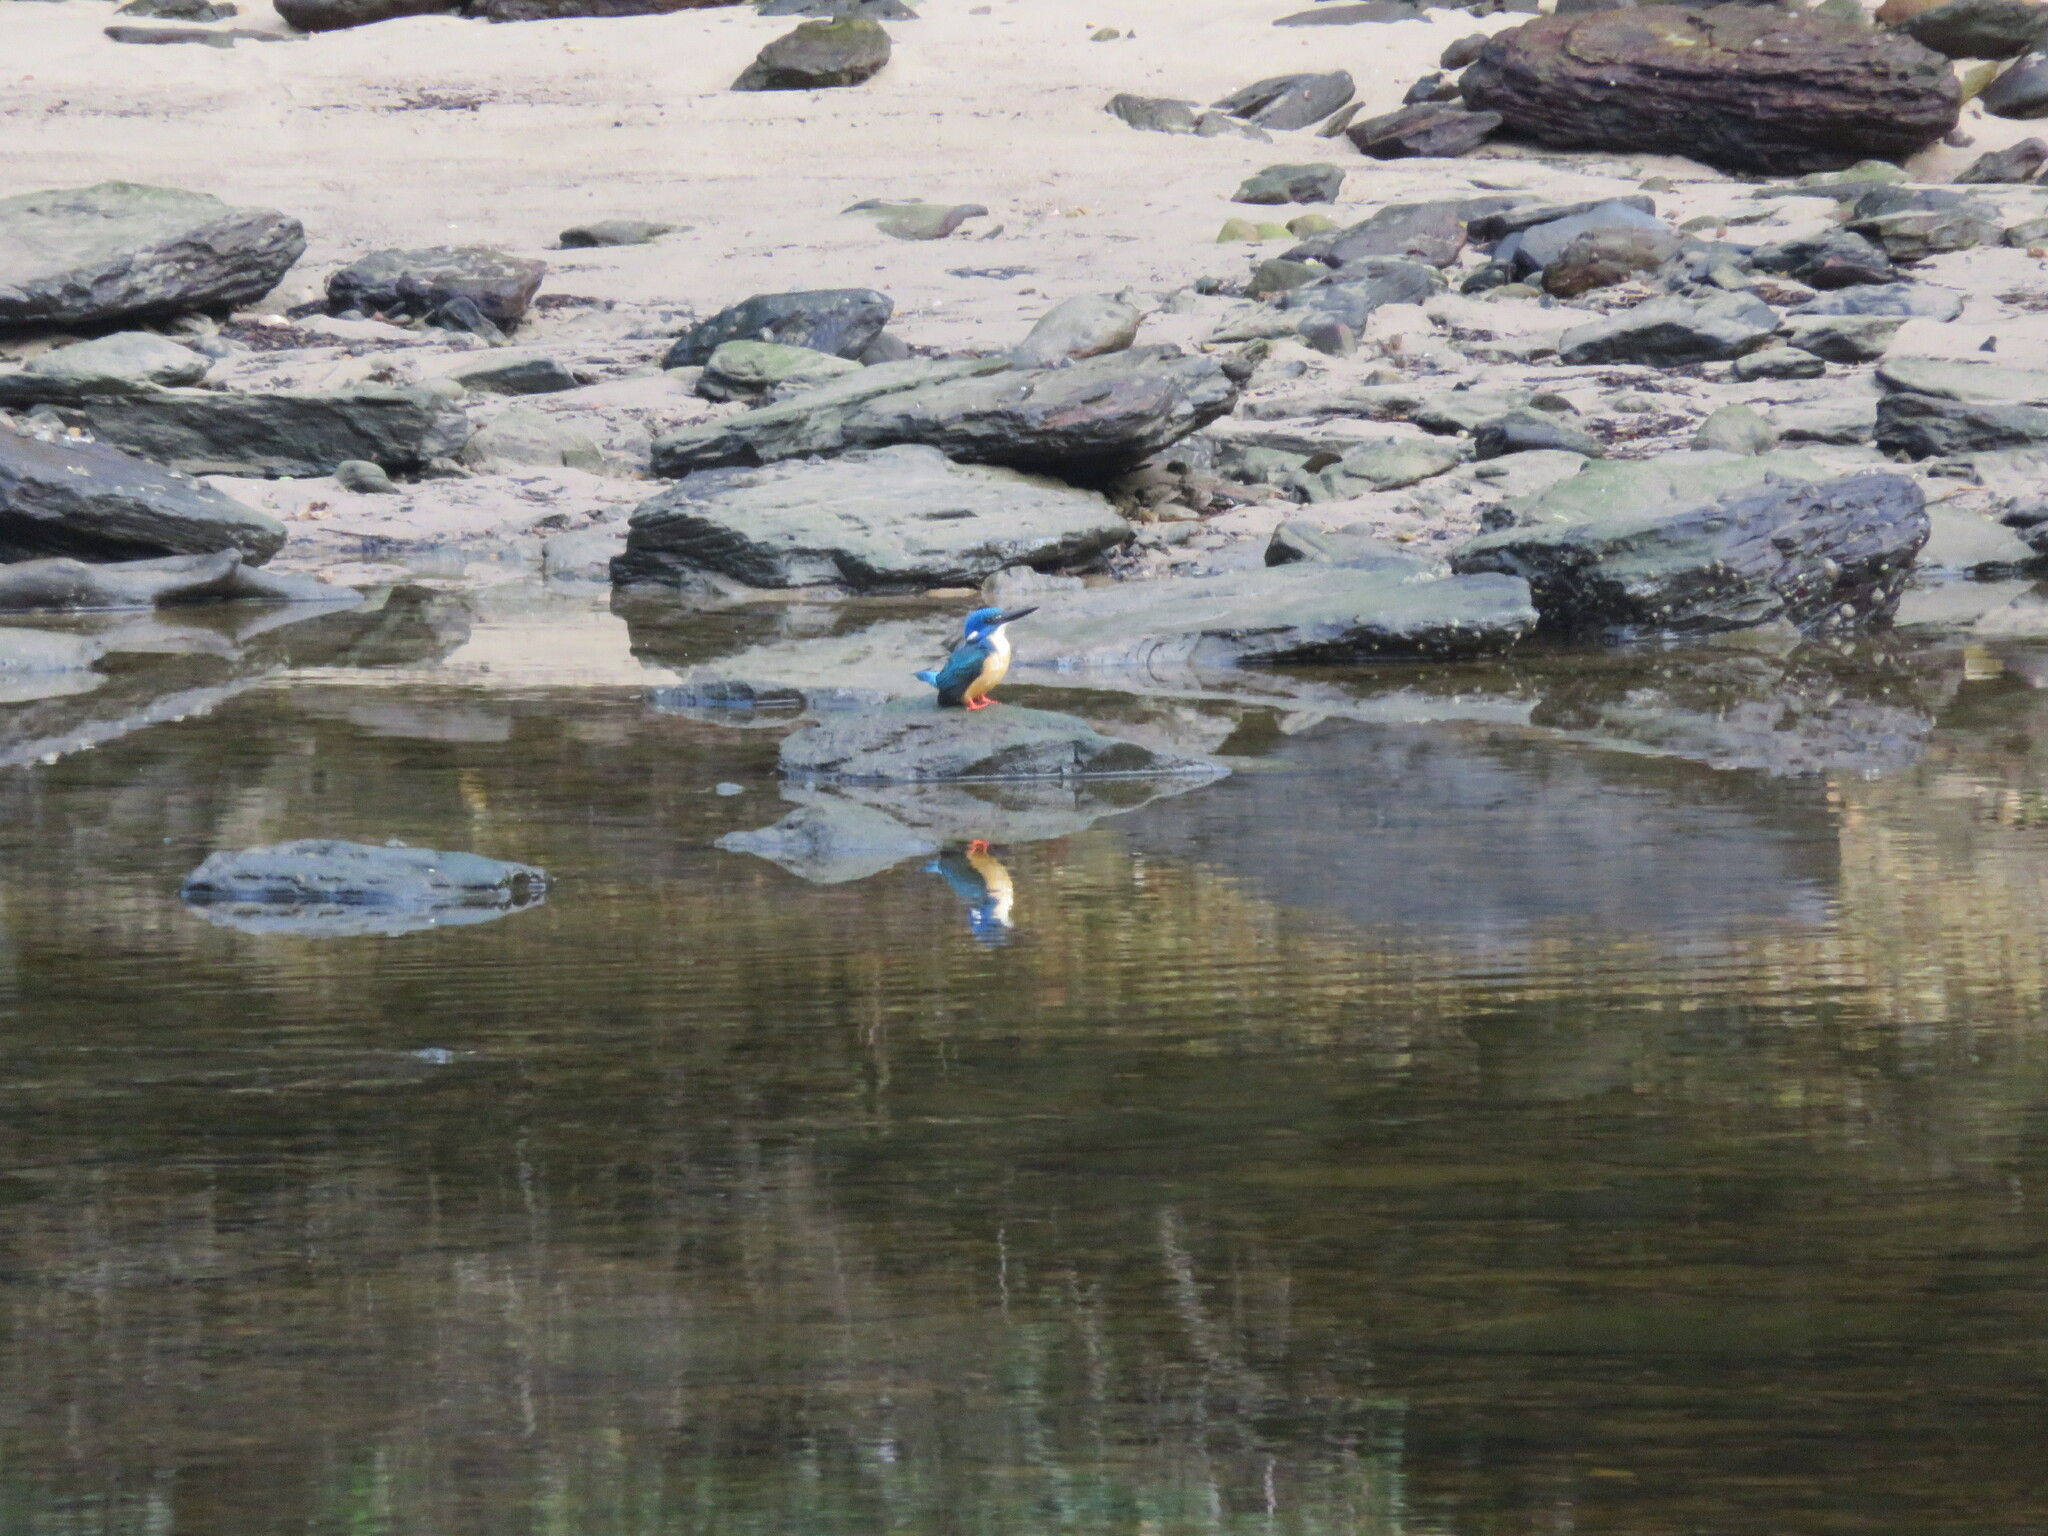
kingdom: Animalia
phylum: Chordata
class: Aves
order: Coraciiformes
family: Alcedinidae
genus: Alcedo
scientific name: Alcedo semitorquata
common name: Half-collared kingfisher
